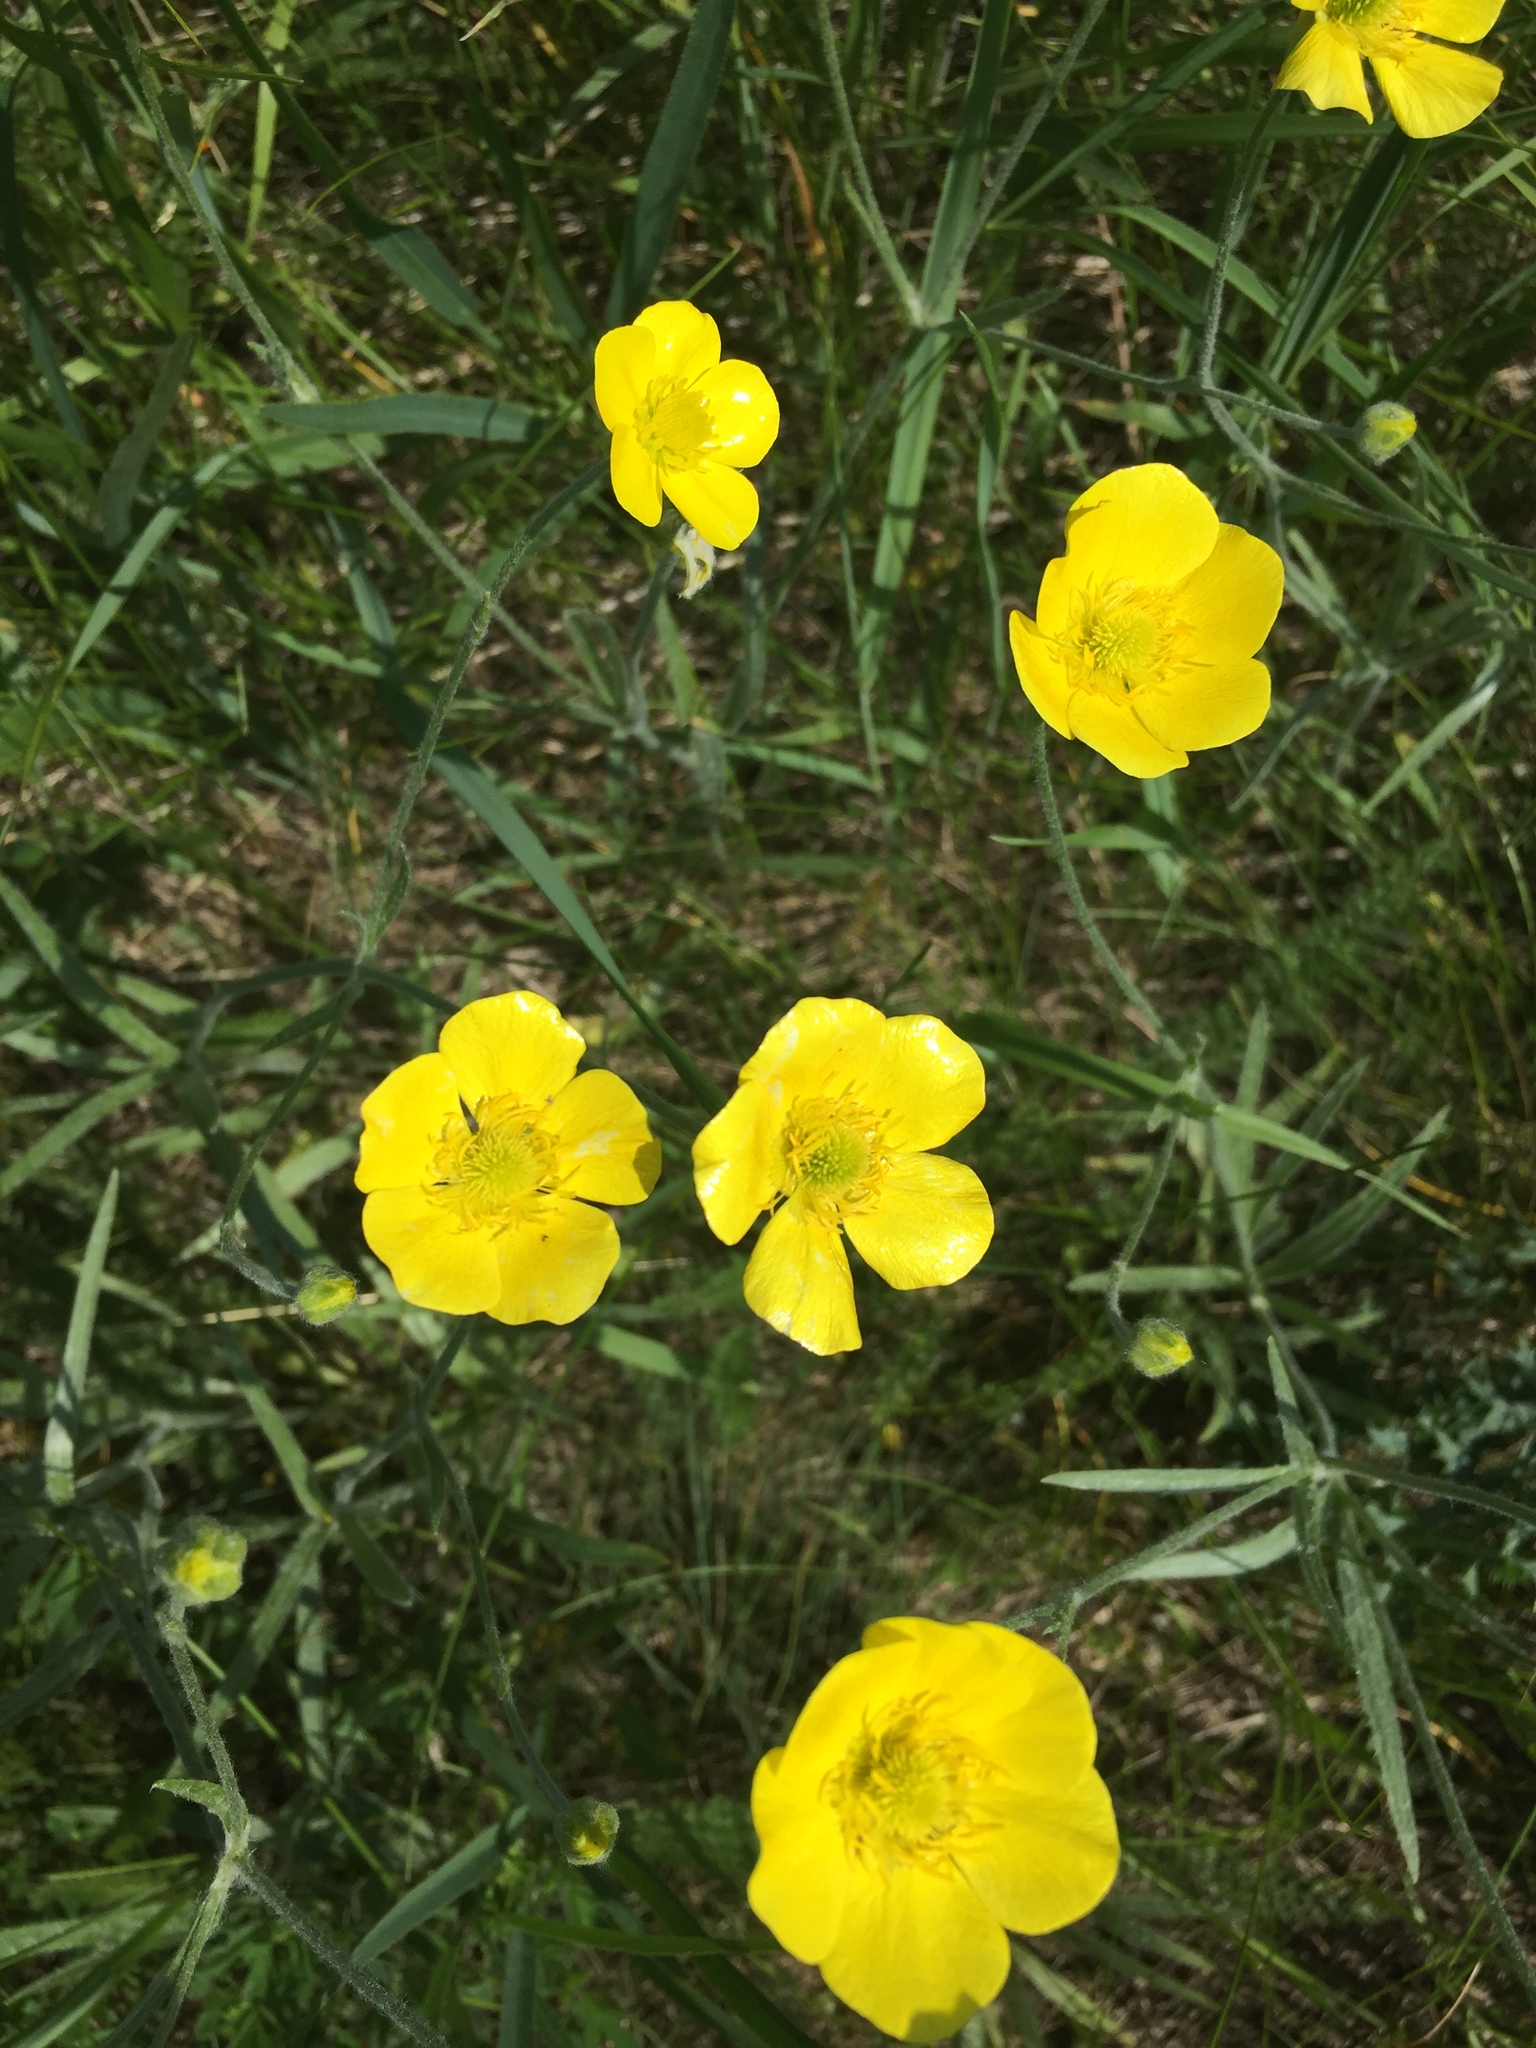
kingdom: Plantae
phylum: Tracheophyta
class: Magnoliopsida
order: Ranunculales
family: Ranunculaceae
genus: Ranunculus
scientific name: Ranunculus illyricus
